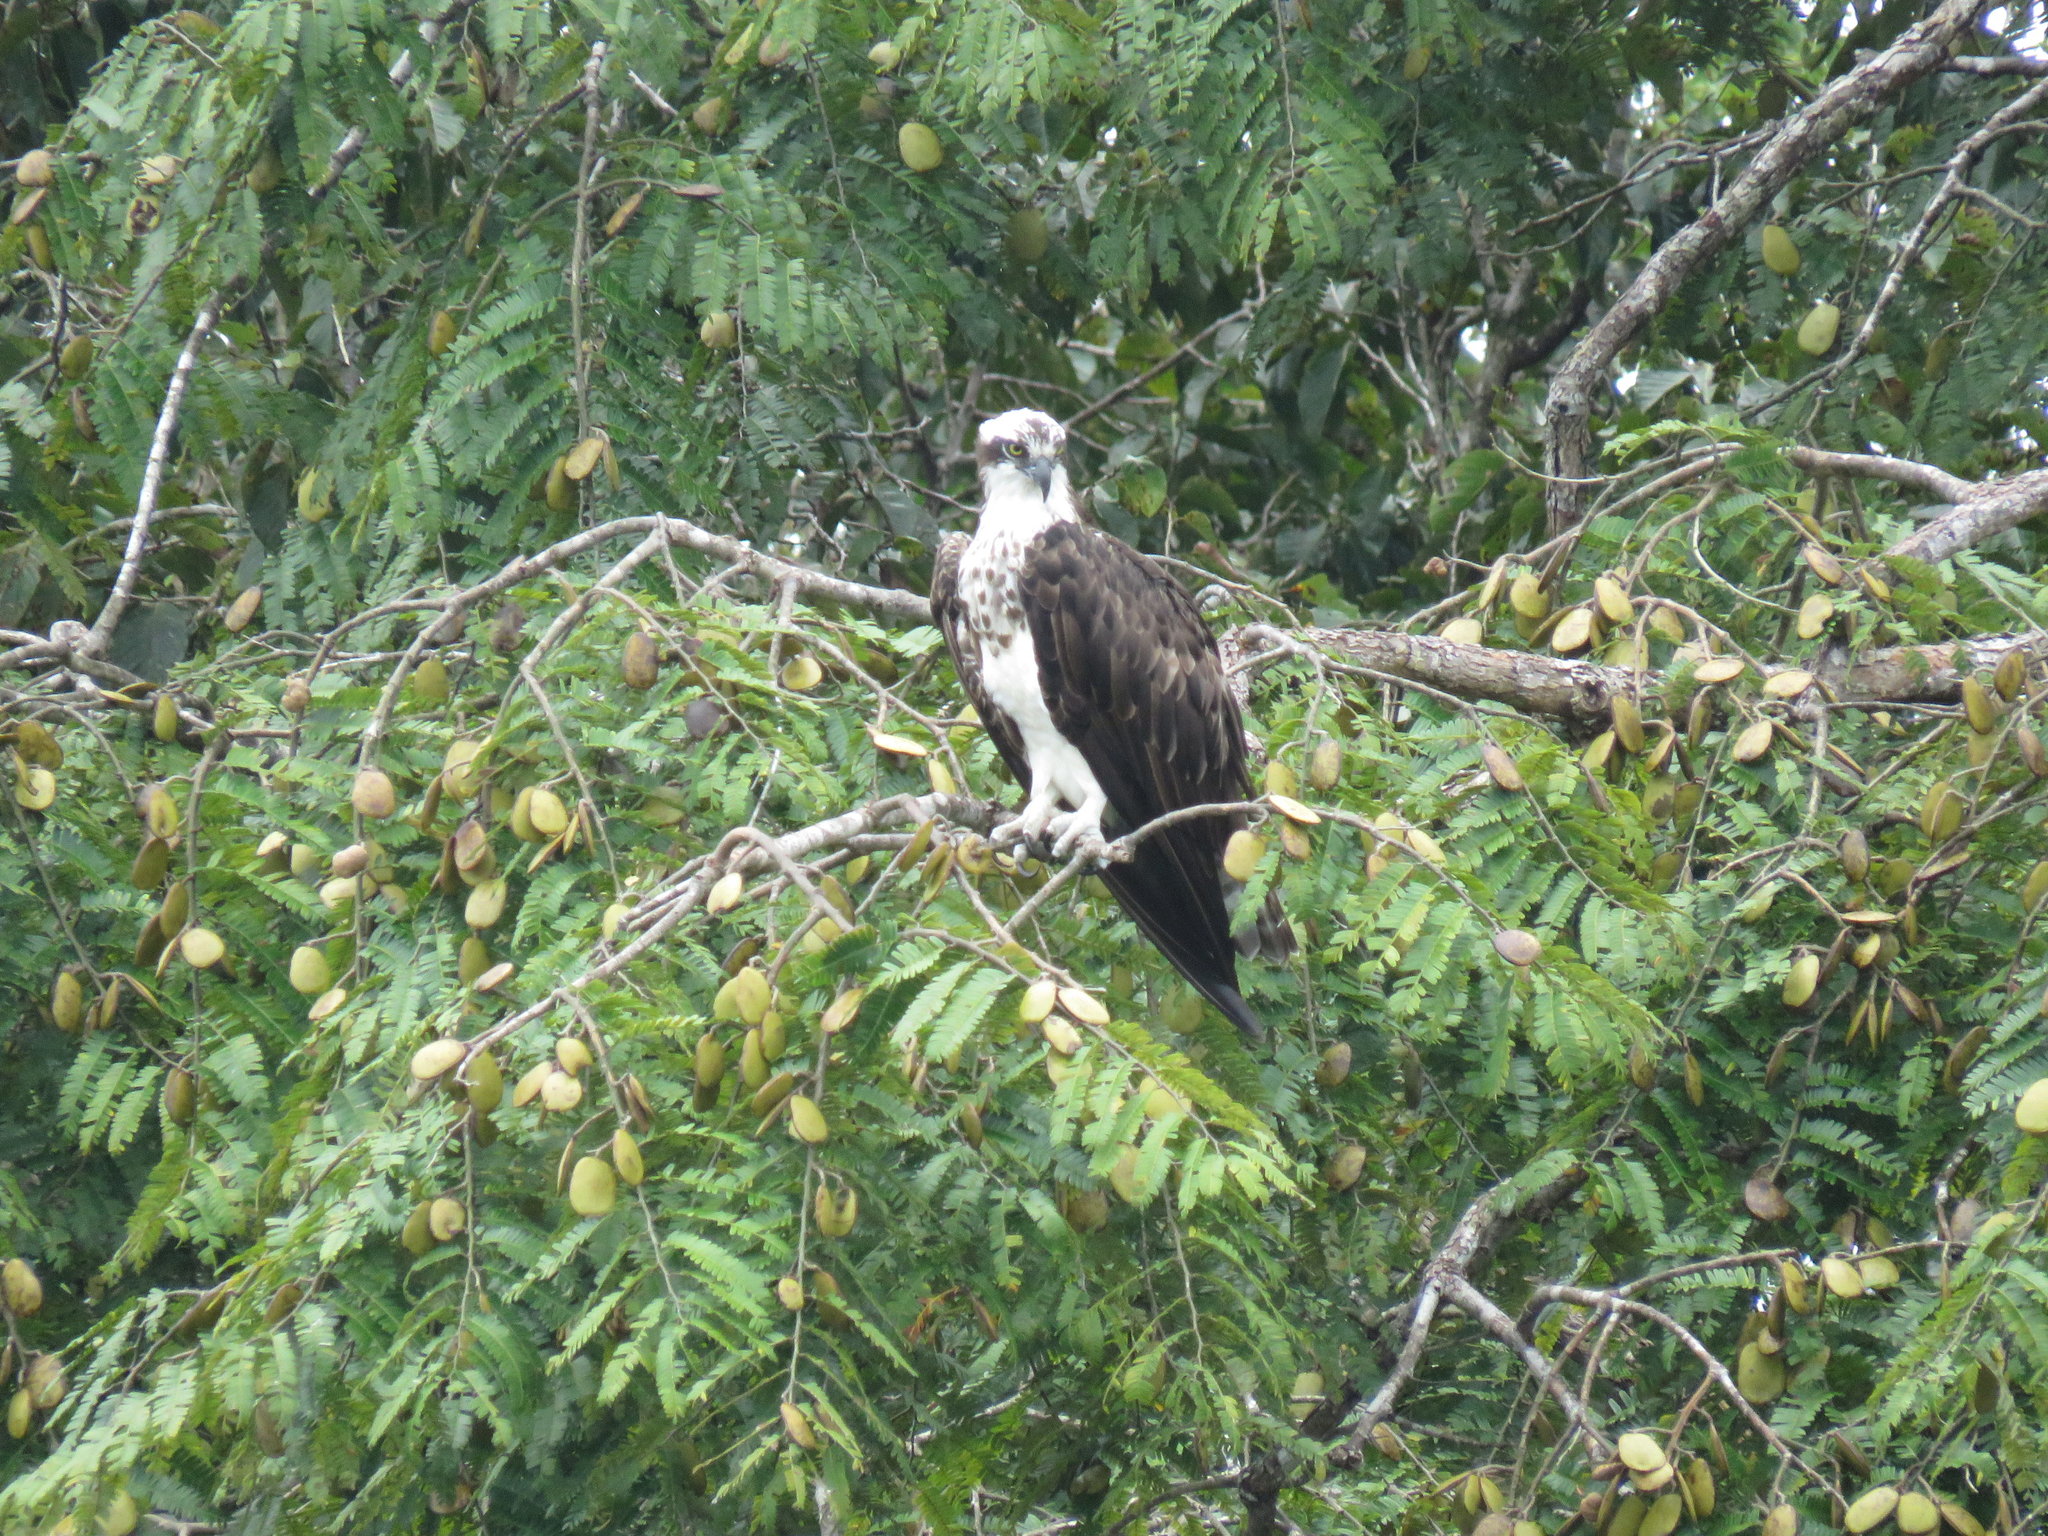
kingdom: Animalia
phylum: Chordata
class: Aves
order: Accipitriformes
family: Pandionidae
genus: Pandion
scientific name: Pandion haliaetus
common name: Osprey
